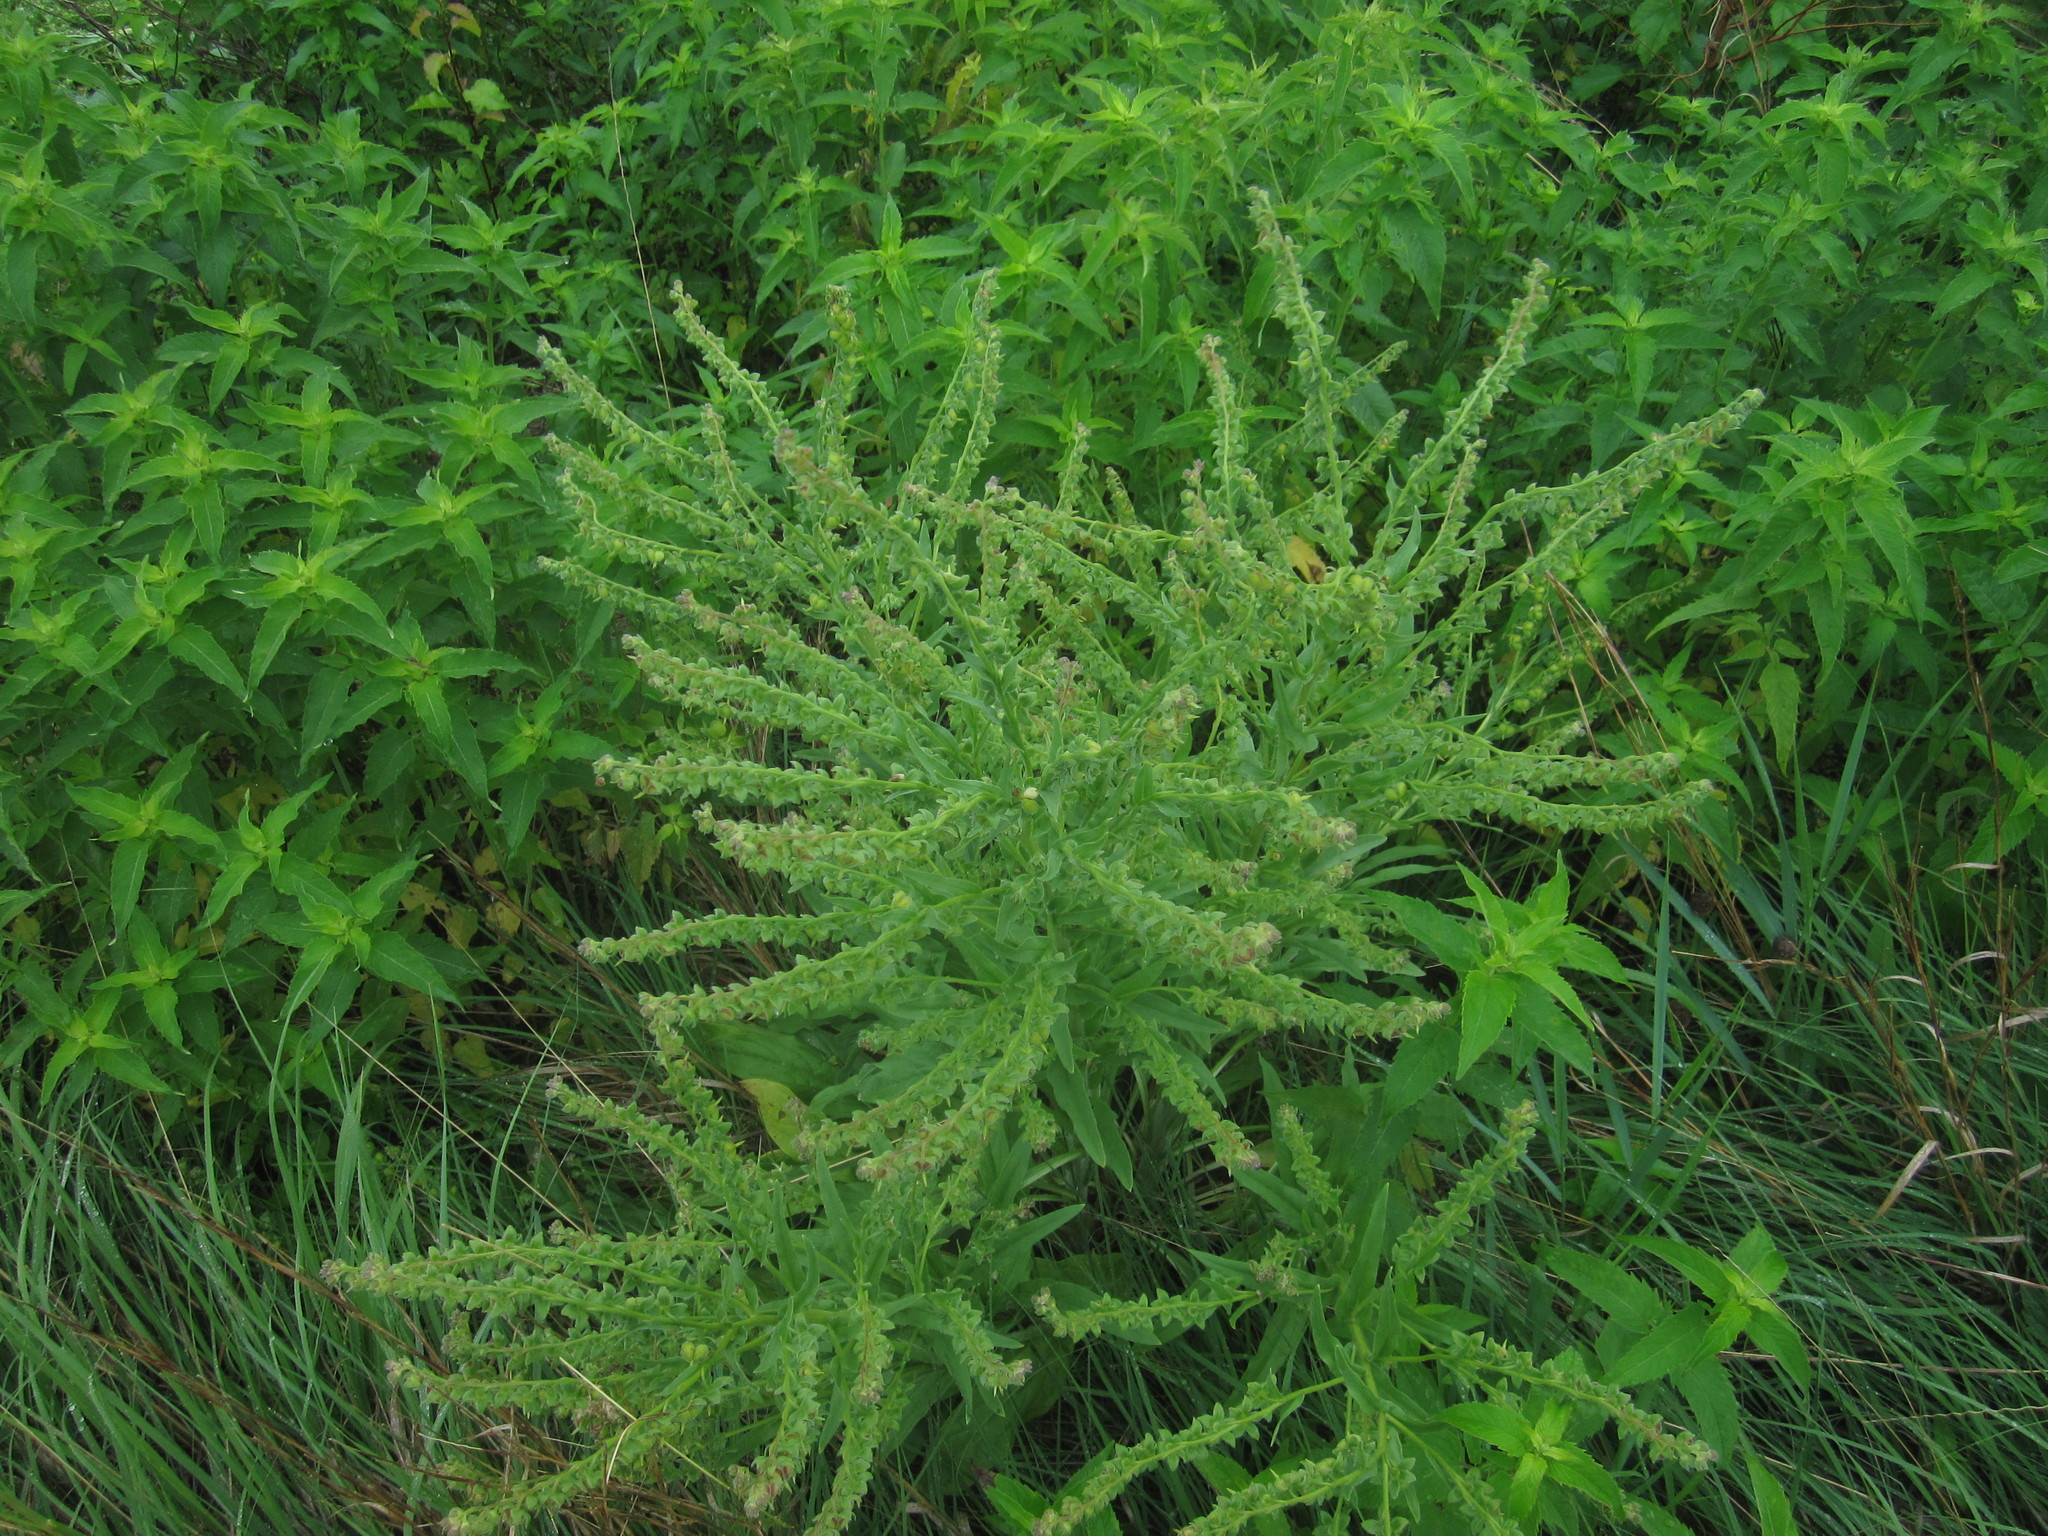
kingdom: Plantae
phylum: Tracheophyta
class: Magnoliopsida
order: Boraginales
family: Boraginaceae
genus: Cynoglossum
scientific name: Cynoglossum officinale
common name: Hound's-tongue
